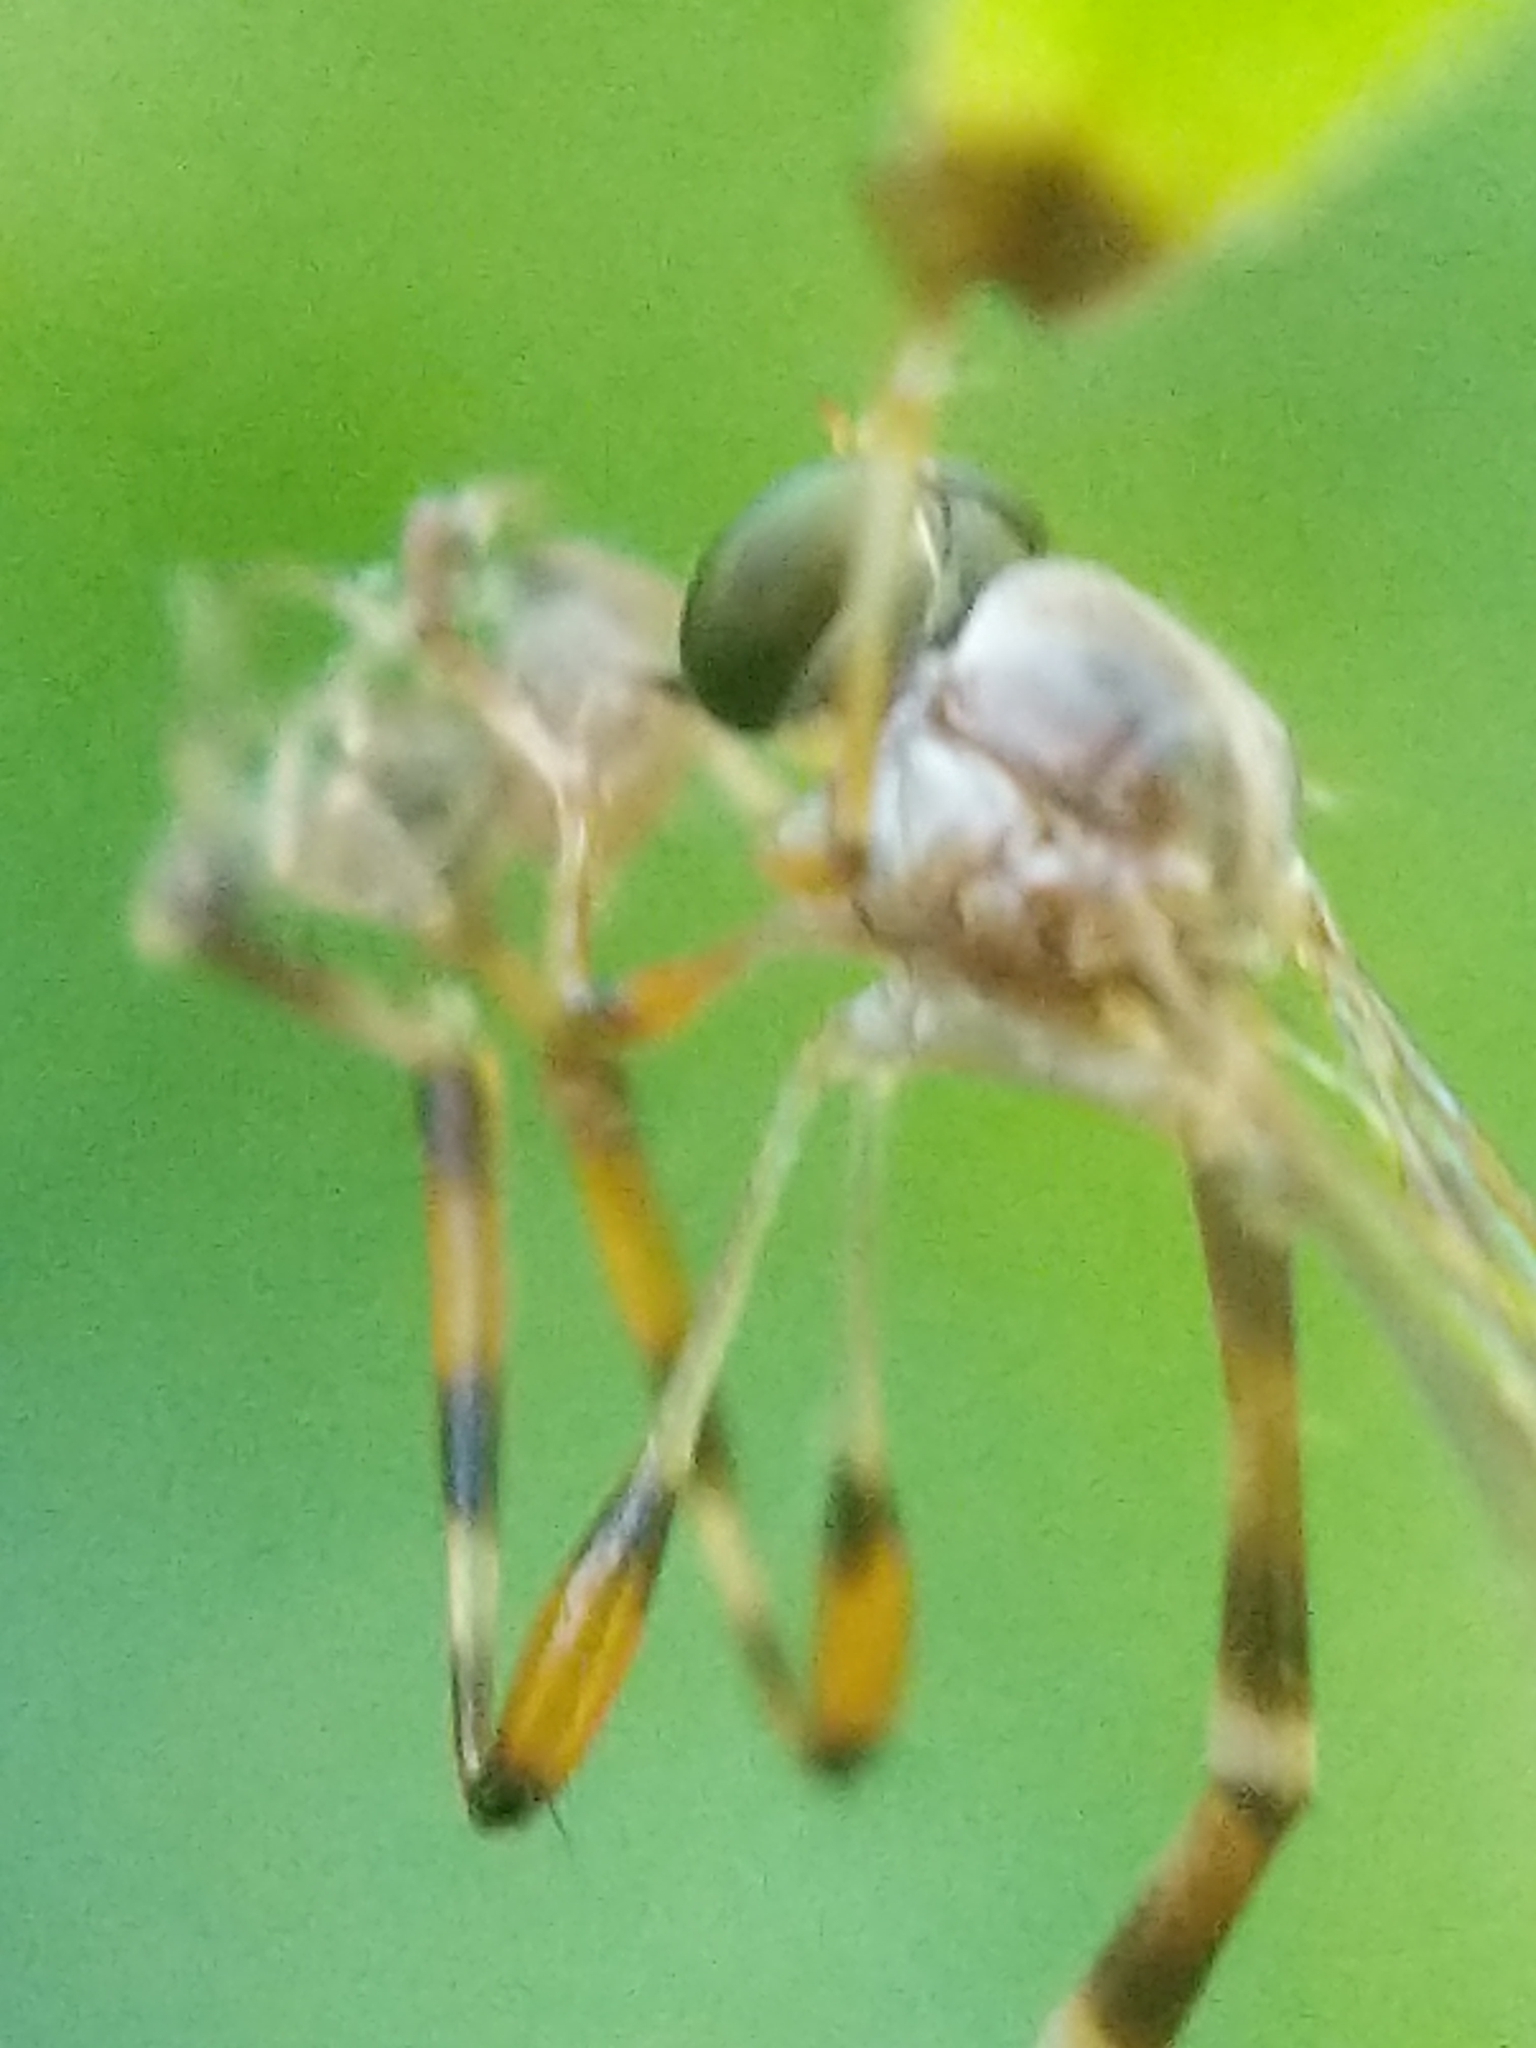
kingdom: Animalia
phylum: Arthropoda
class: Insecta
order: Diptera
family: Asilidae
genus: Psilonyx
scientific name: Psilonyx annulatus
